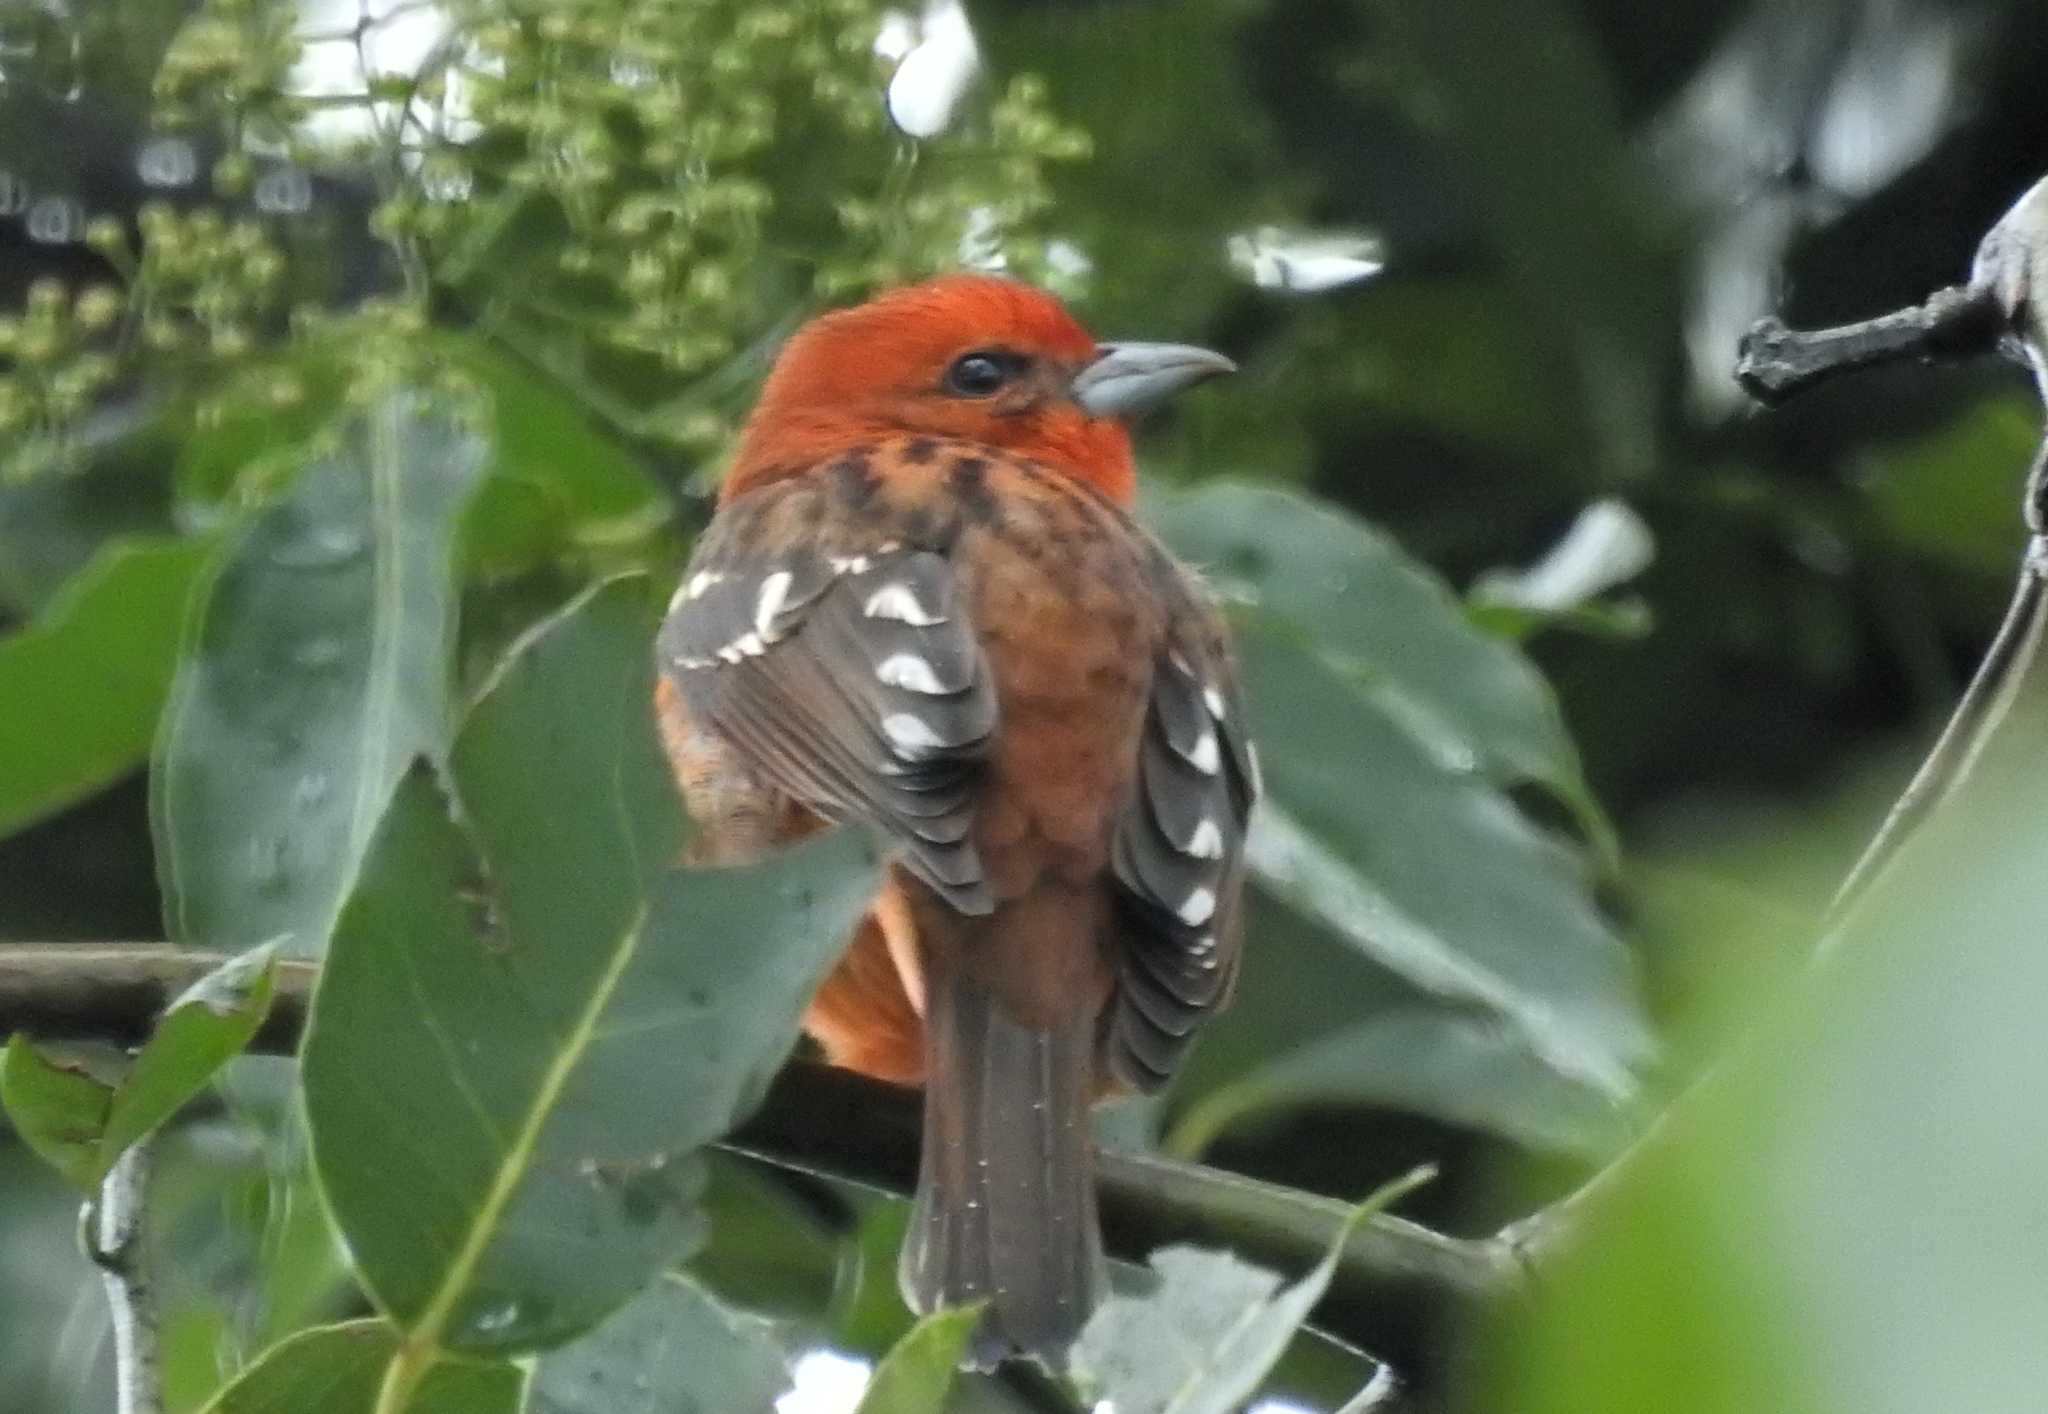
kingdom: Animalia
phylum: Chordata
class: Aves
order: Passeriformes
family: Cardinalidae
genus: Piranga
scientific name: Piranga bidentata
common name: Flame-colored tanager
